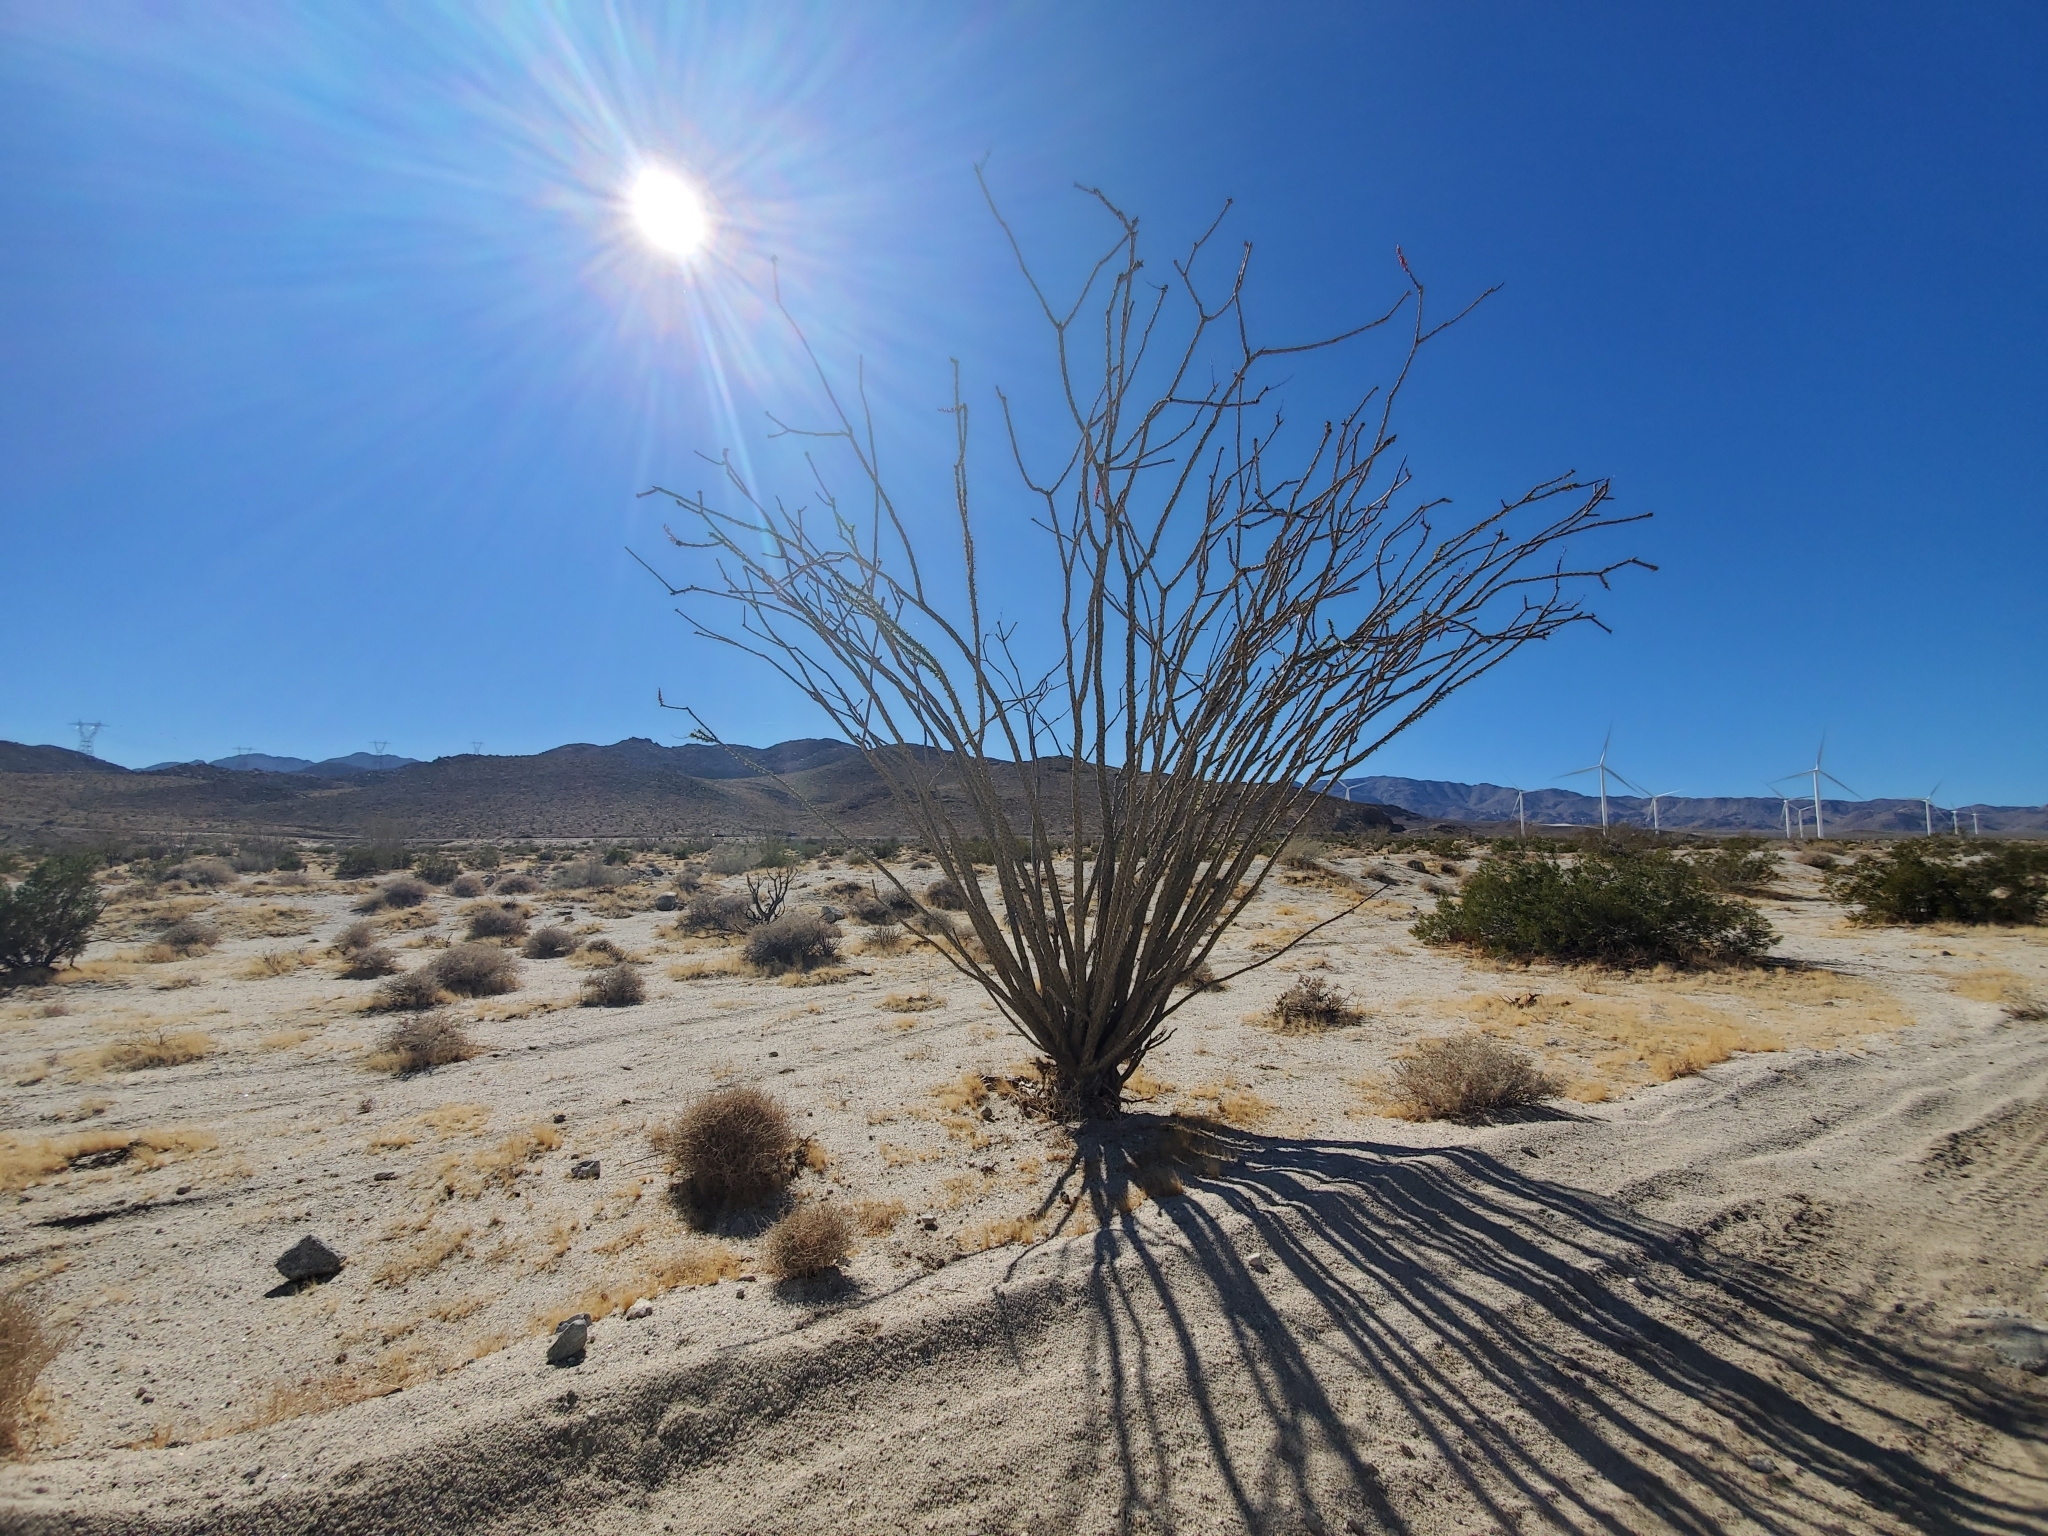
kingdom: Plantae
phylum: Tracheophyta
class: Magnoliopsida
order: Ericales
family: Fouquieriaceae
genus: Fouquieria
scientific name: Fouquieria splendens
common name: Vine-cactus
